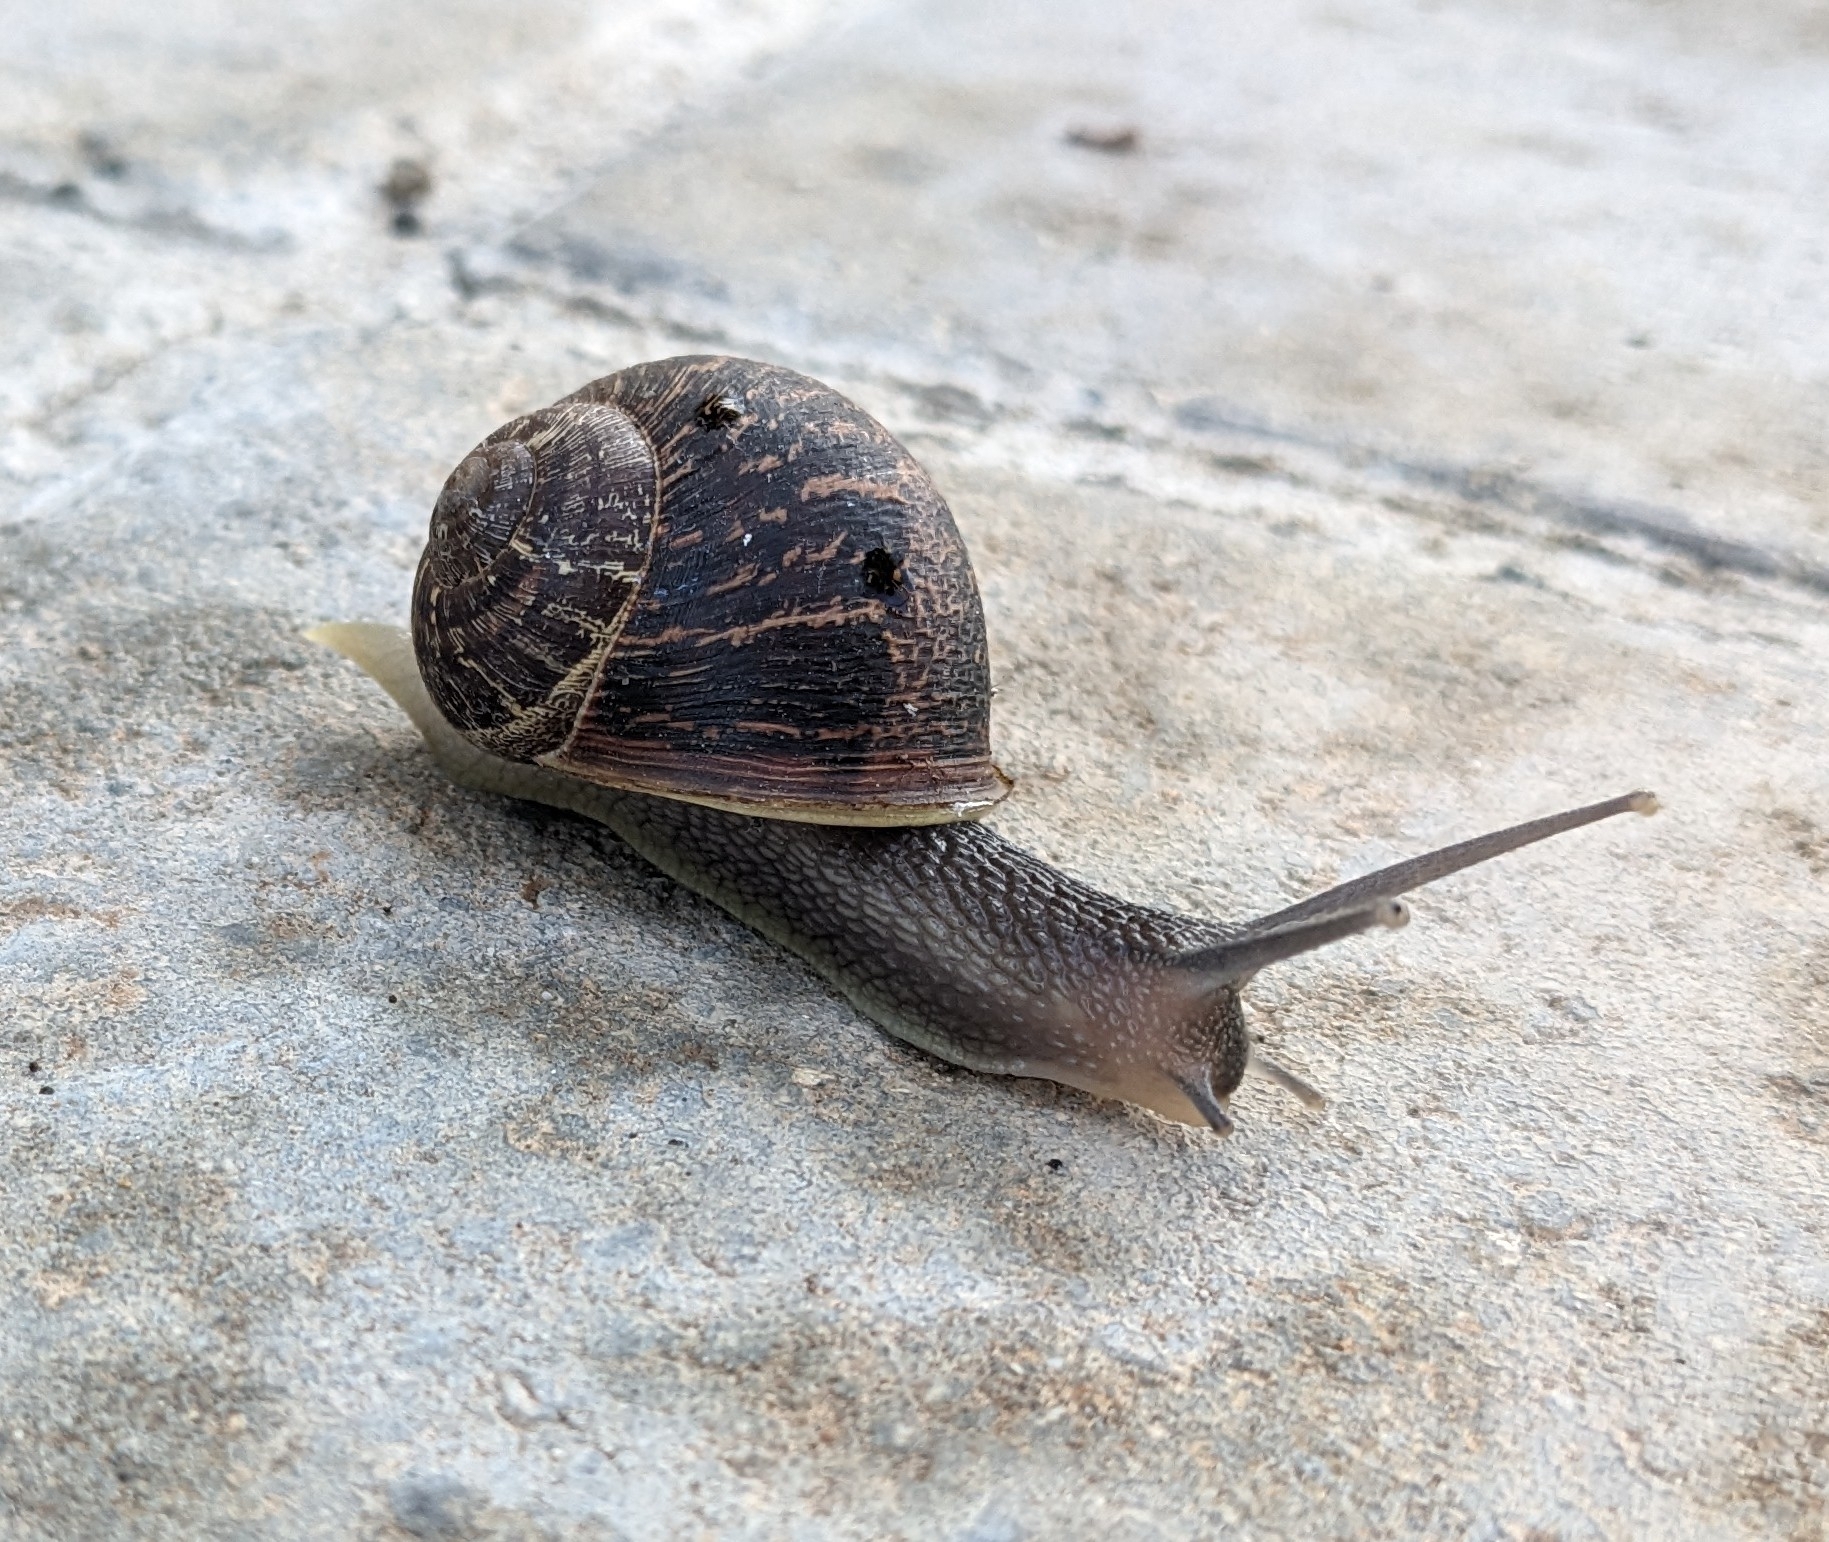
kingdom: Animalia
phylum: Mollusca
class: Gastropoda
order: Stylommatophora
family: Helicidae
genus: Cornu
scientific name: Cornu aspersum
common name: Brown garden snail
